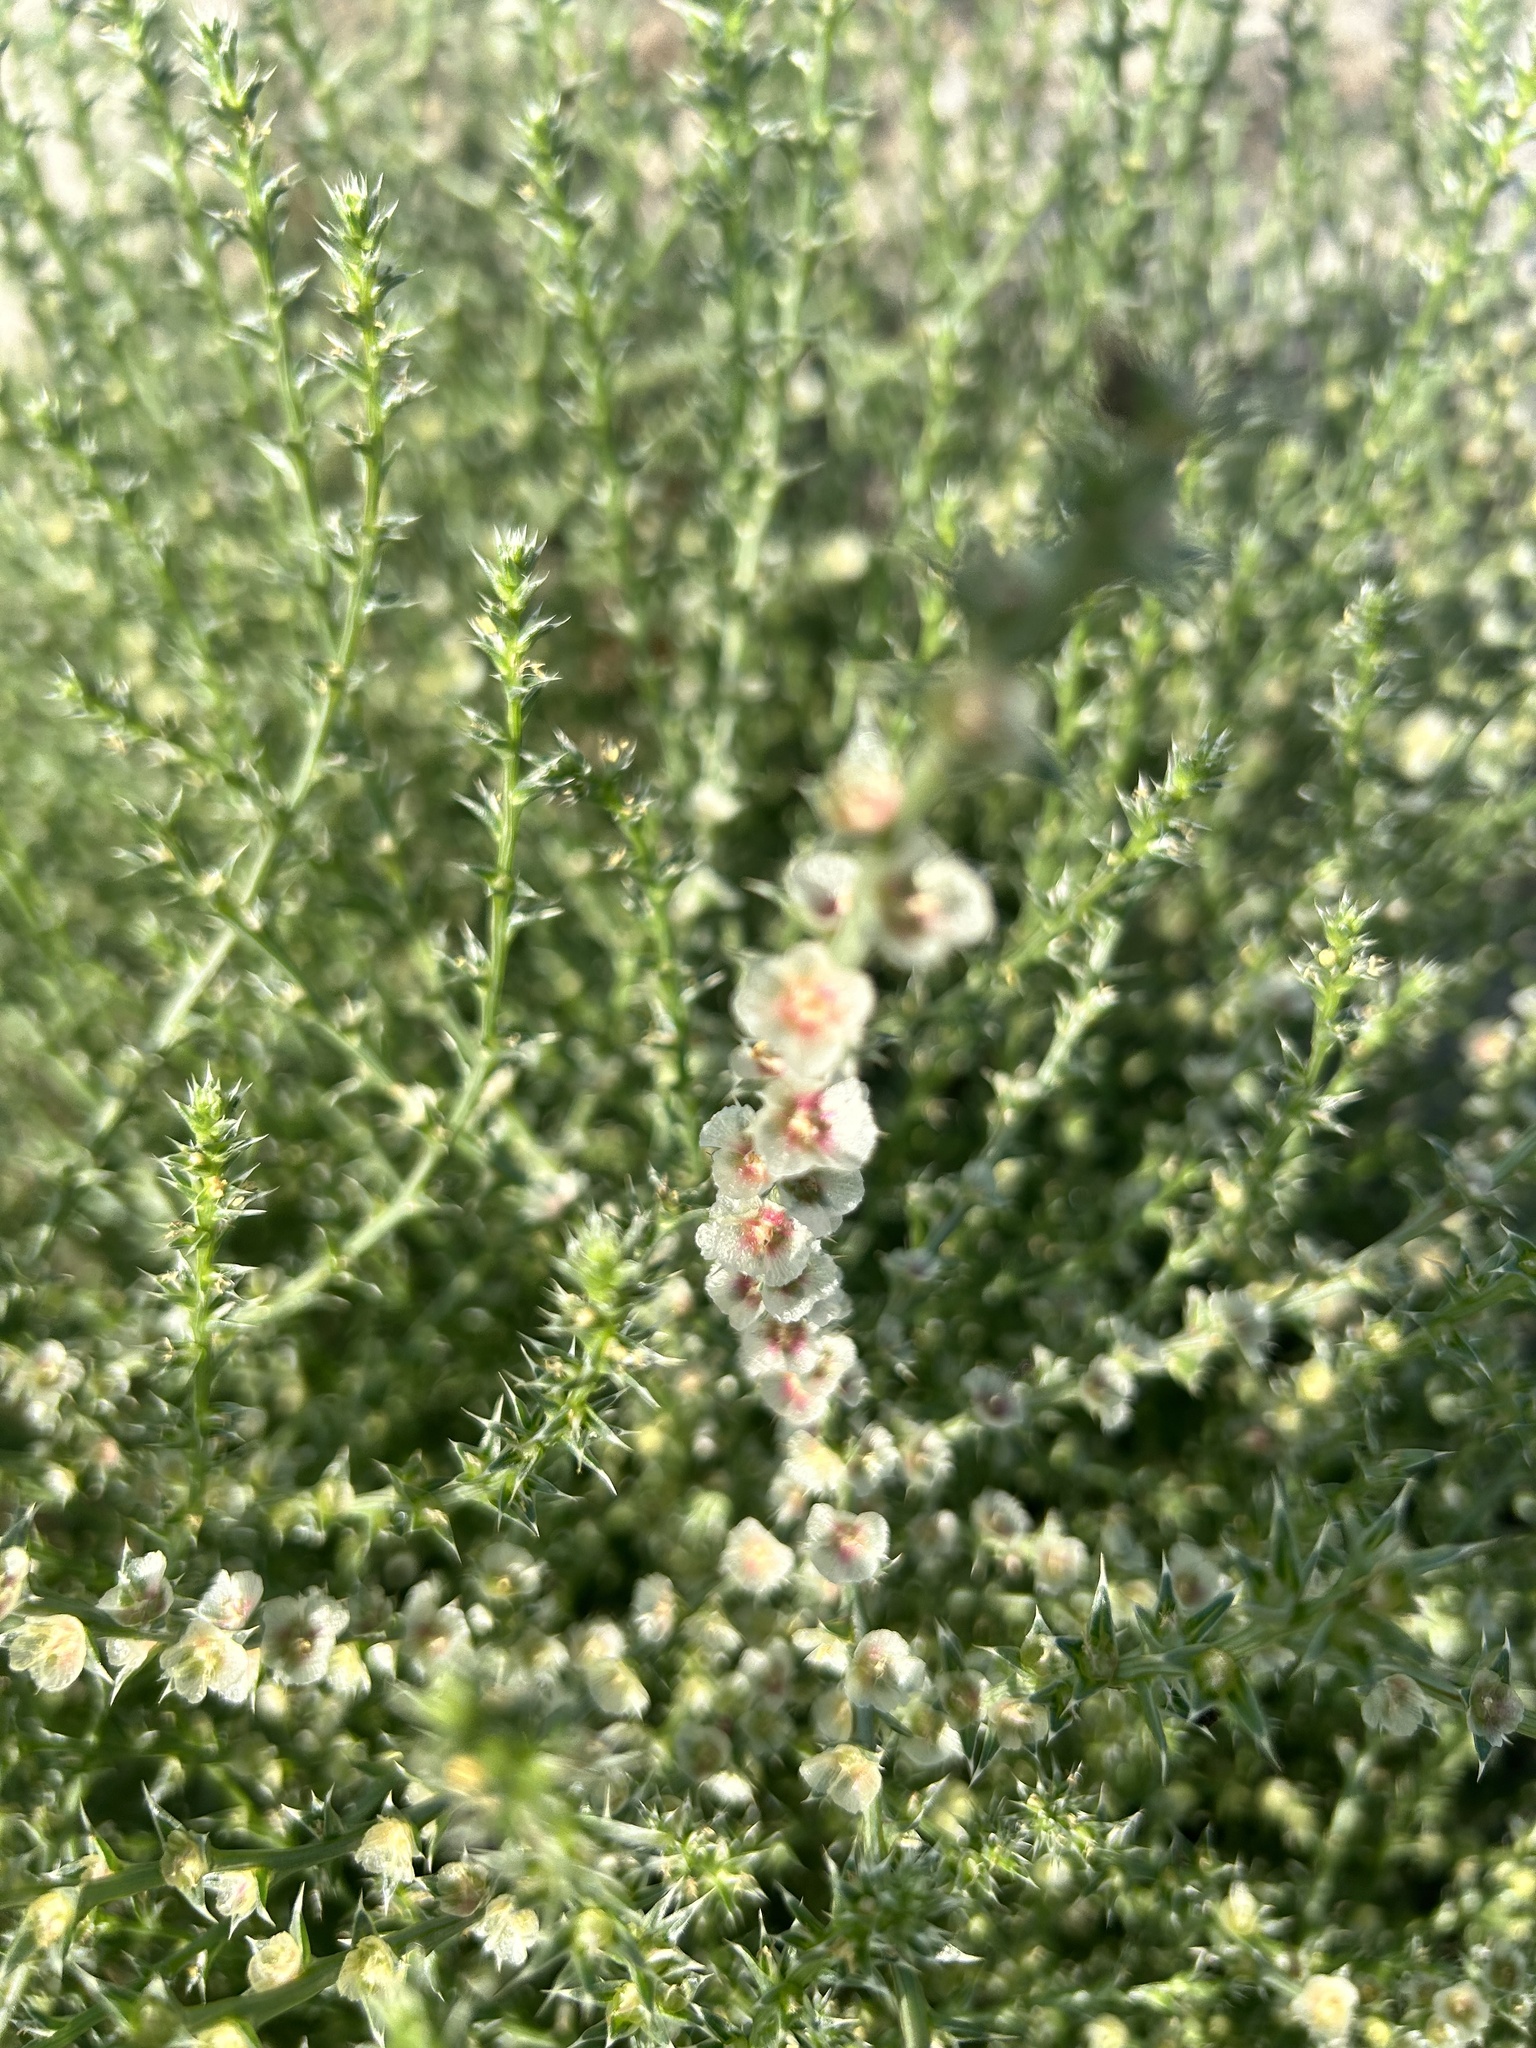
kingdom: Plantae
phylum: Tracheophyta
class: Magnoliopsida
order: Caryophyllales
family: Amaranthaceae
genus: Salsola
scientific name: Salsola australis
